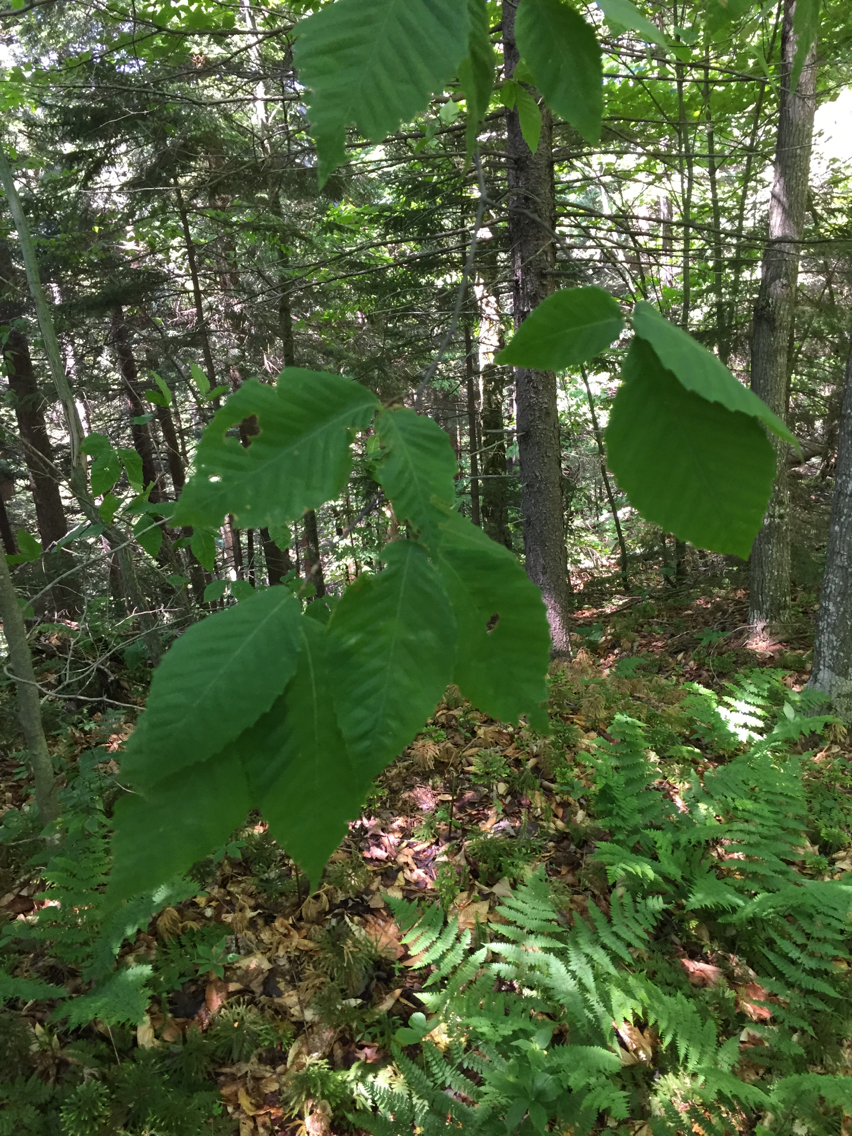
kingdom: Plantae
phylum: Tracheophyta
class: Magnoliopsida
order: Fagales
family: Fagaceae
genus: Fagus
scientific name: Fagus grandifolia
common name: American beech
